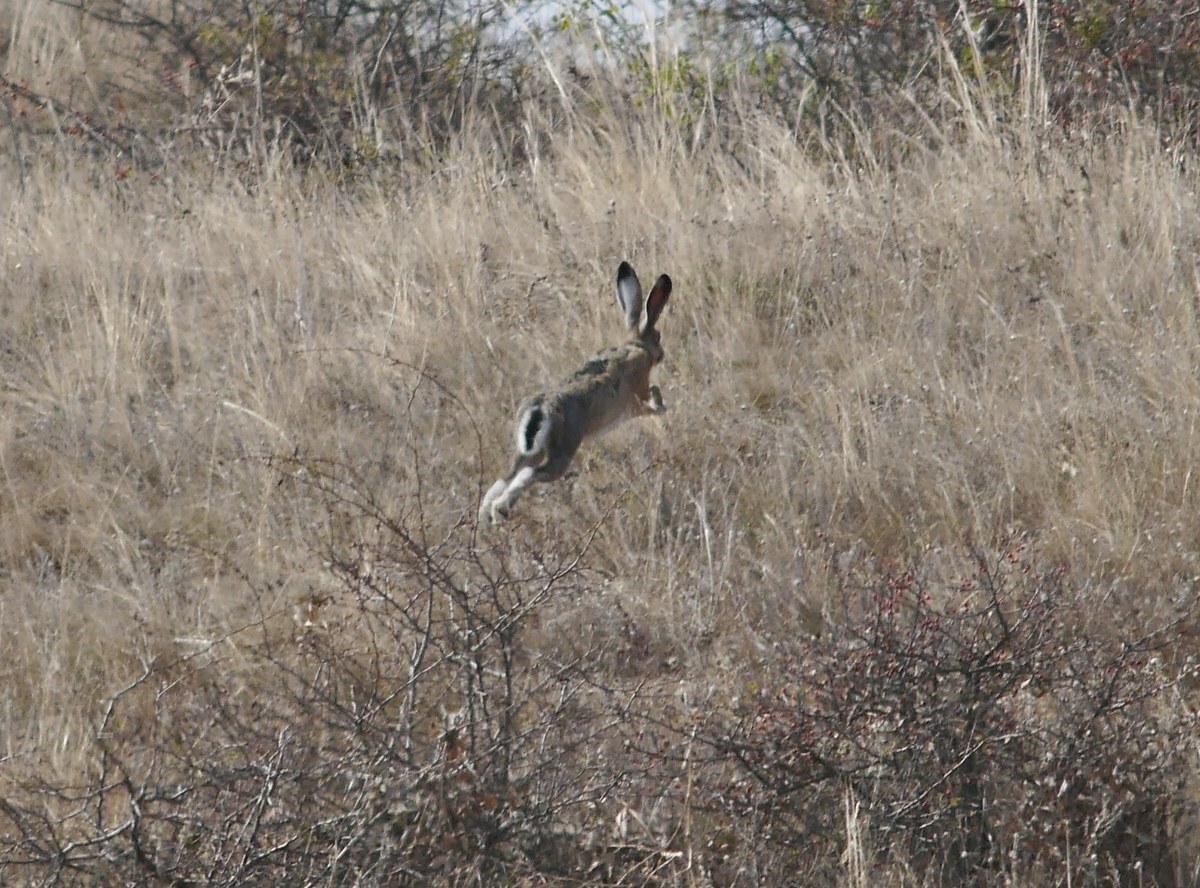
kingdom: Animalia
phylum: Chordata
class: Mammalia
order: Lagomorpha
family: Leporidae
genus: Lepus
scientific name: Lepus europaeus
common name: European hare
